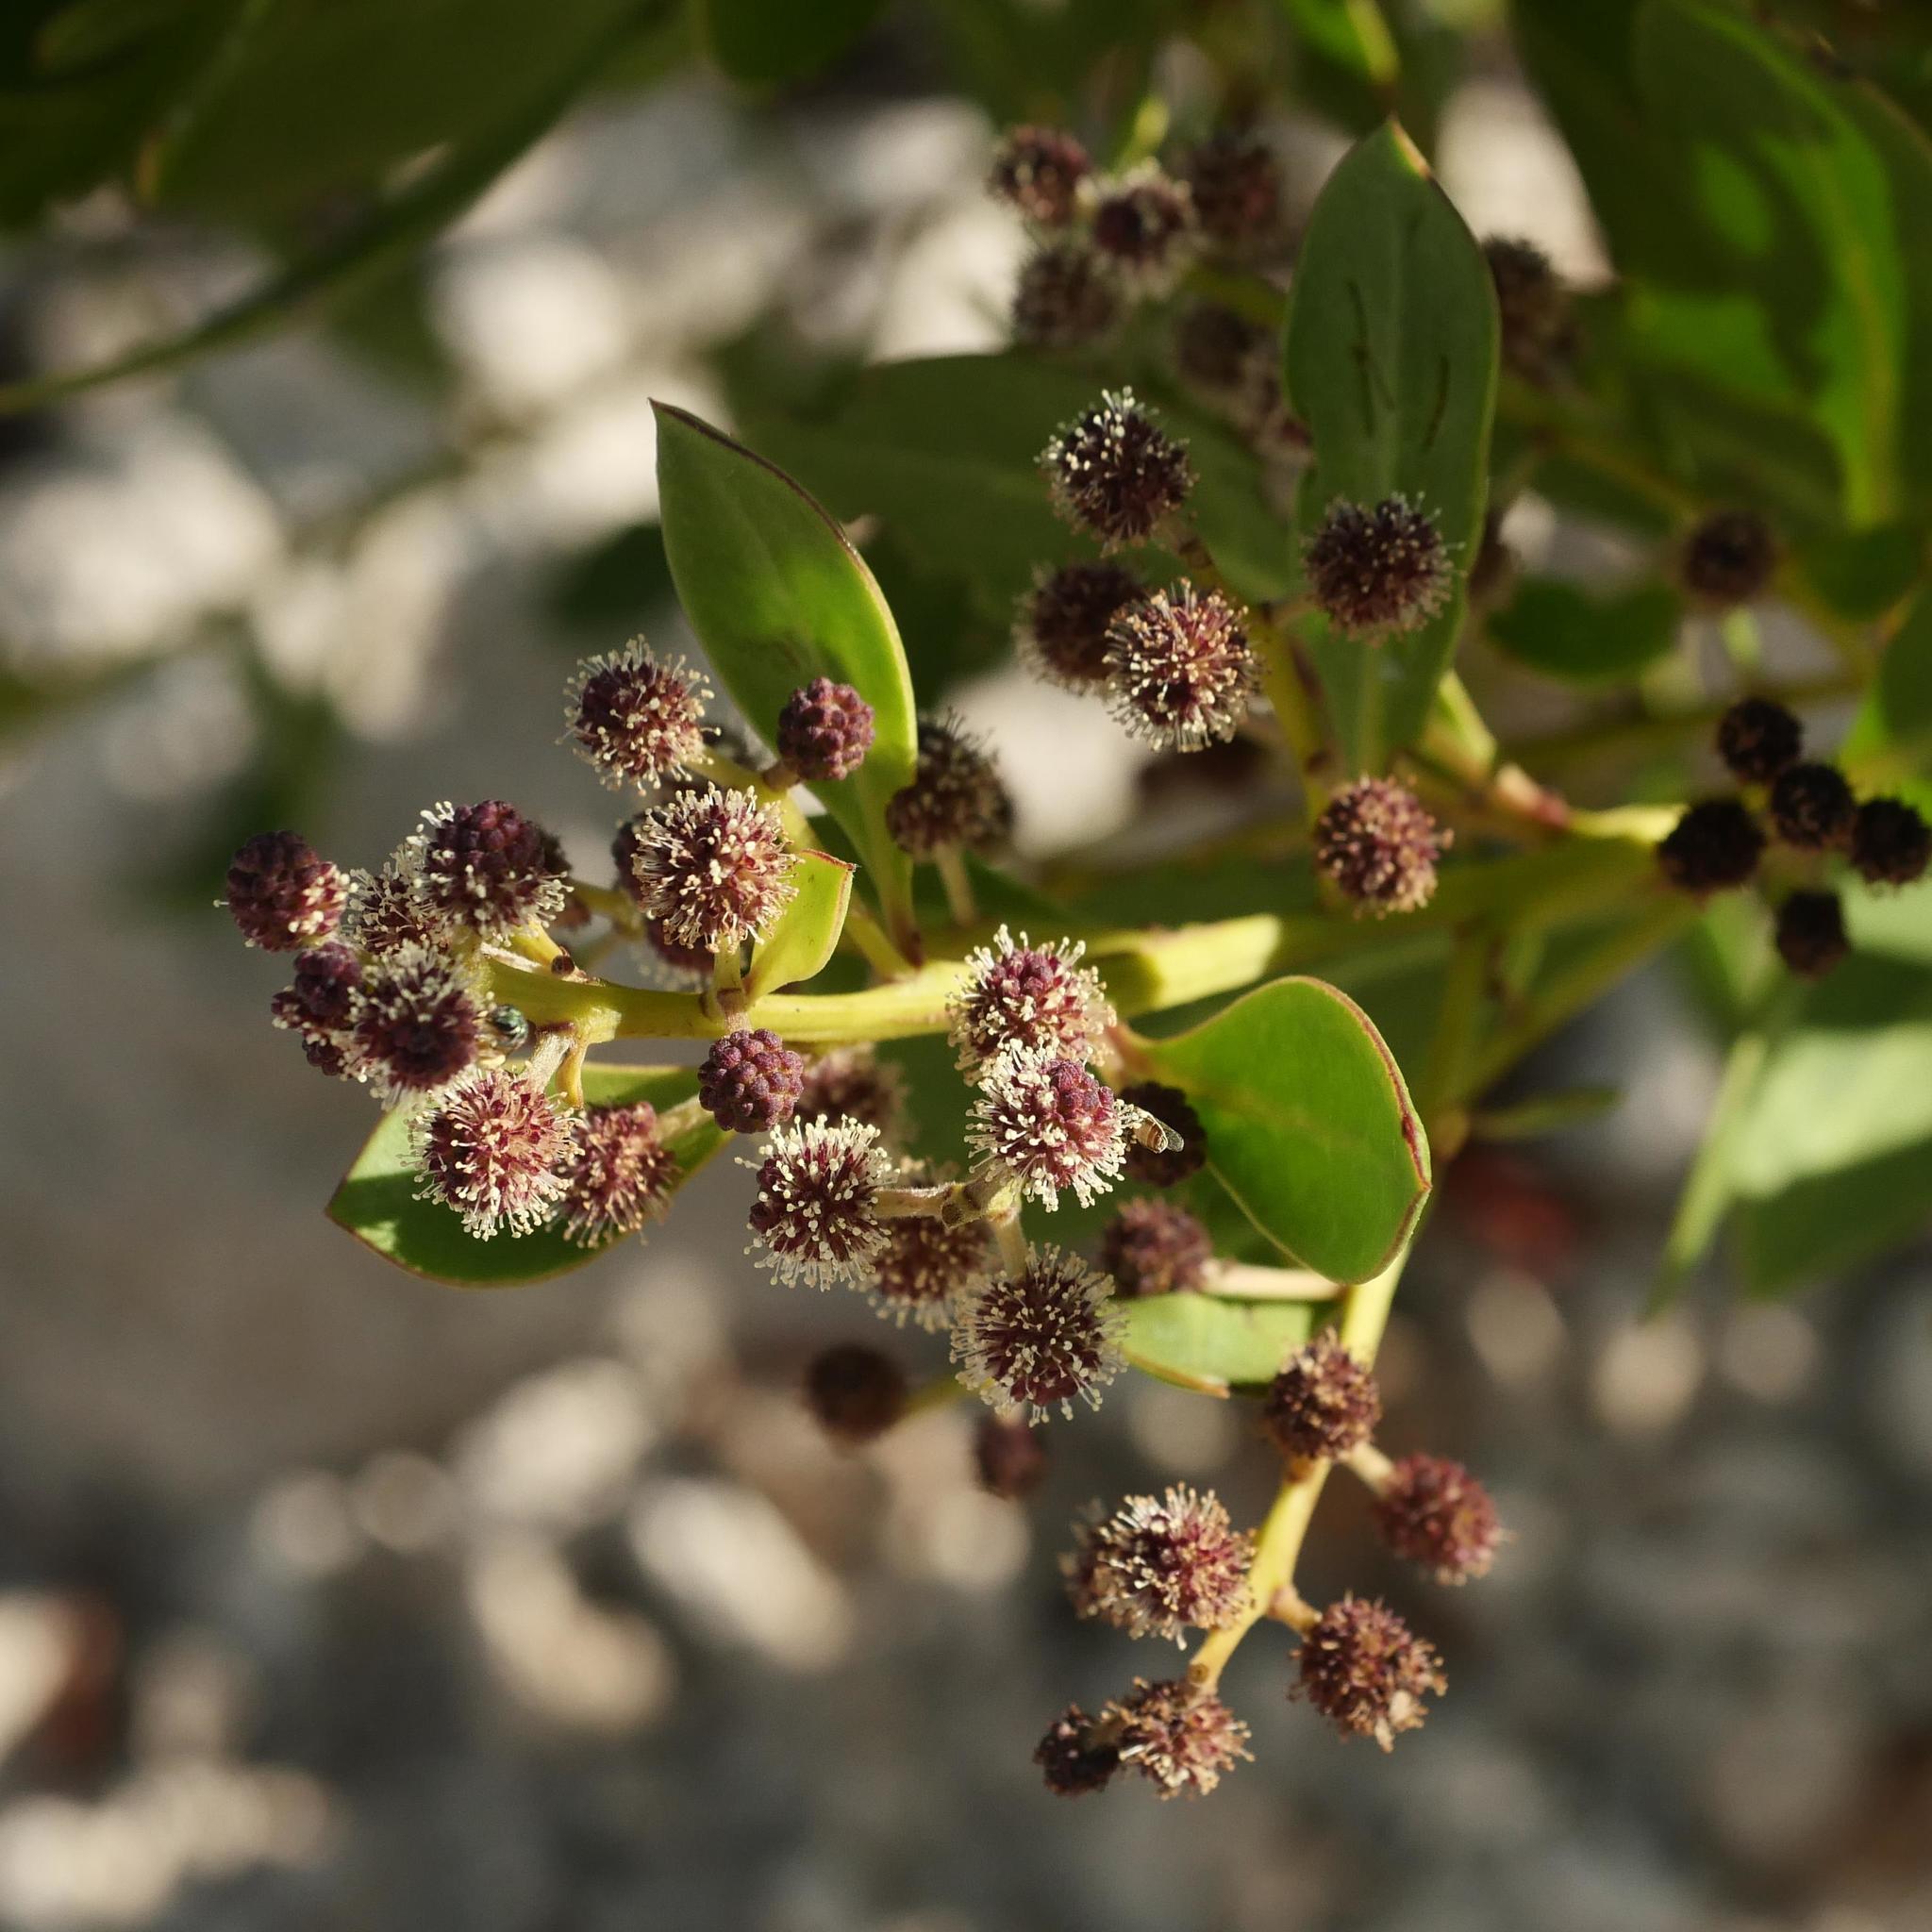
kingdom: Plantae
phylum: Tracheophyta
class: Magnoliopsida
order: Myrtales
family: Combretaceae
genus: Conocarpus
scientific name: Conocarpus erectus
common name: Button mangrove
